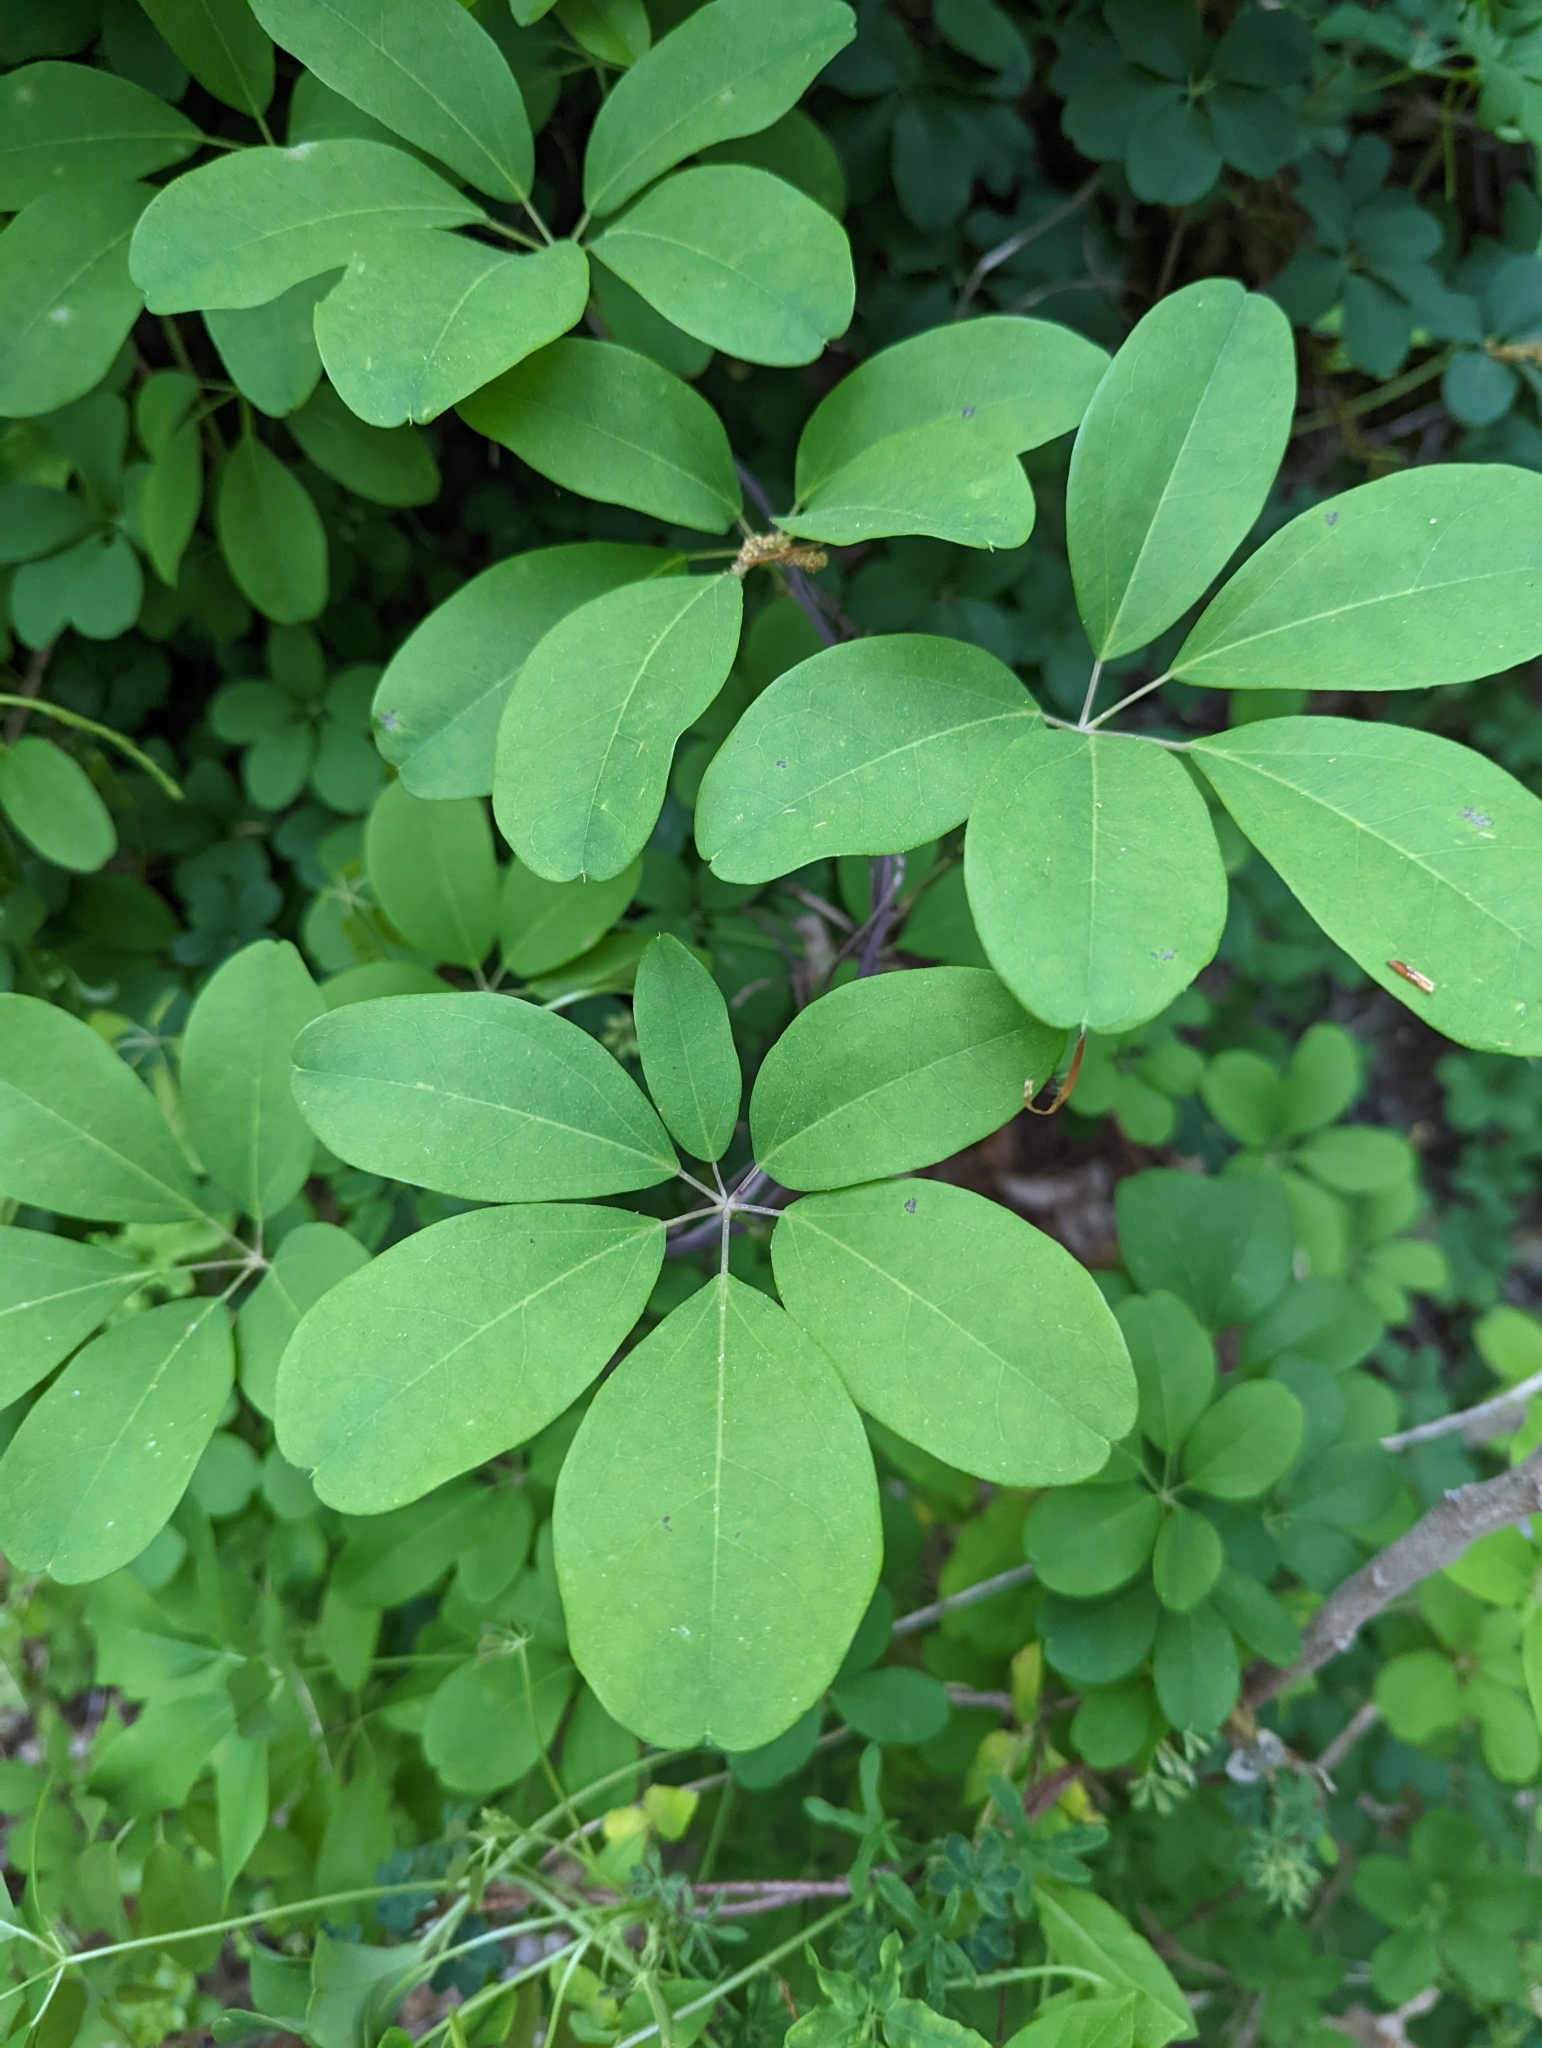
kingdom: Plantae
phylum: Tracheophyta
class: Magnoliopsida
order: Ranunculales
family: Lardizabalaceae
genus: Akebia
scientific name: Akebia quinata
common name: Five-leaf akebia
